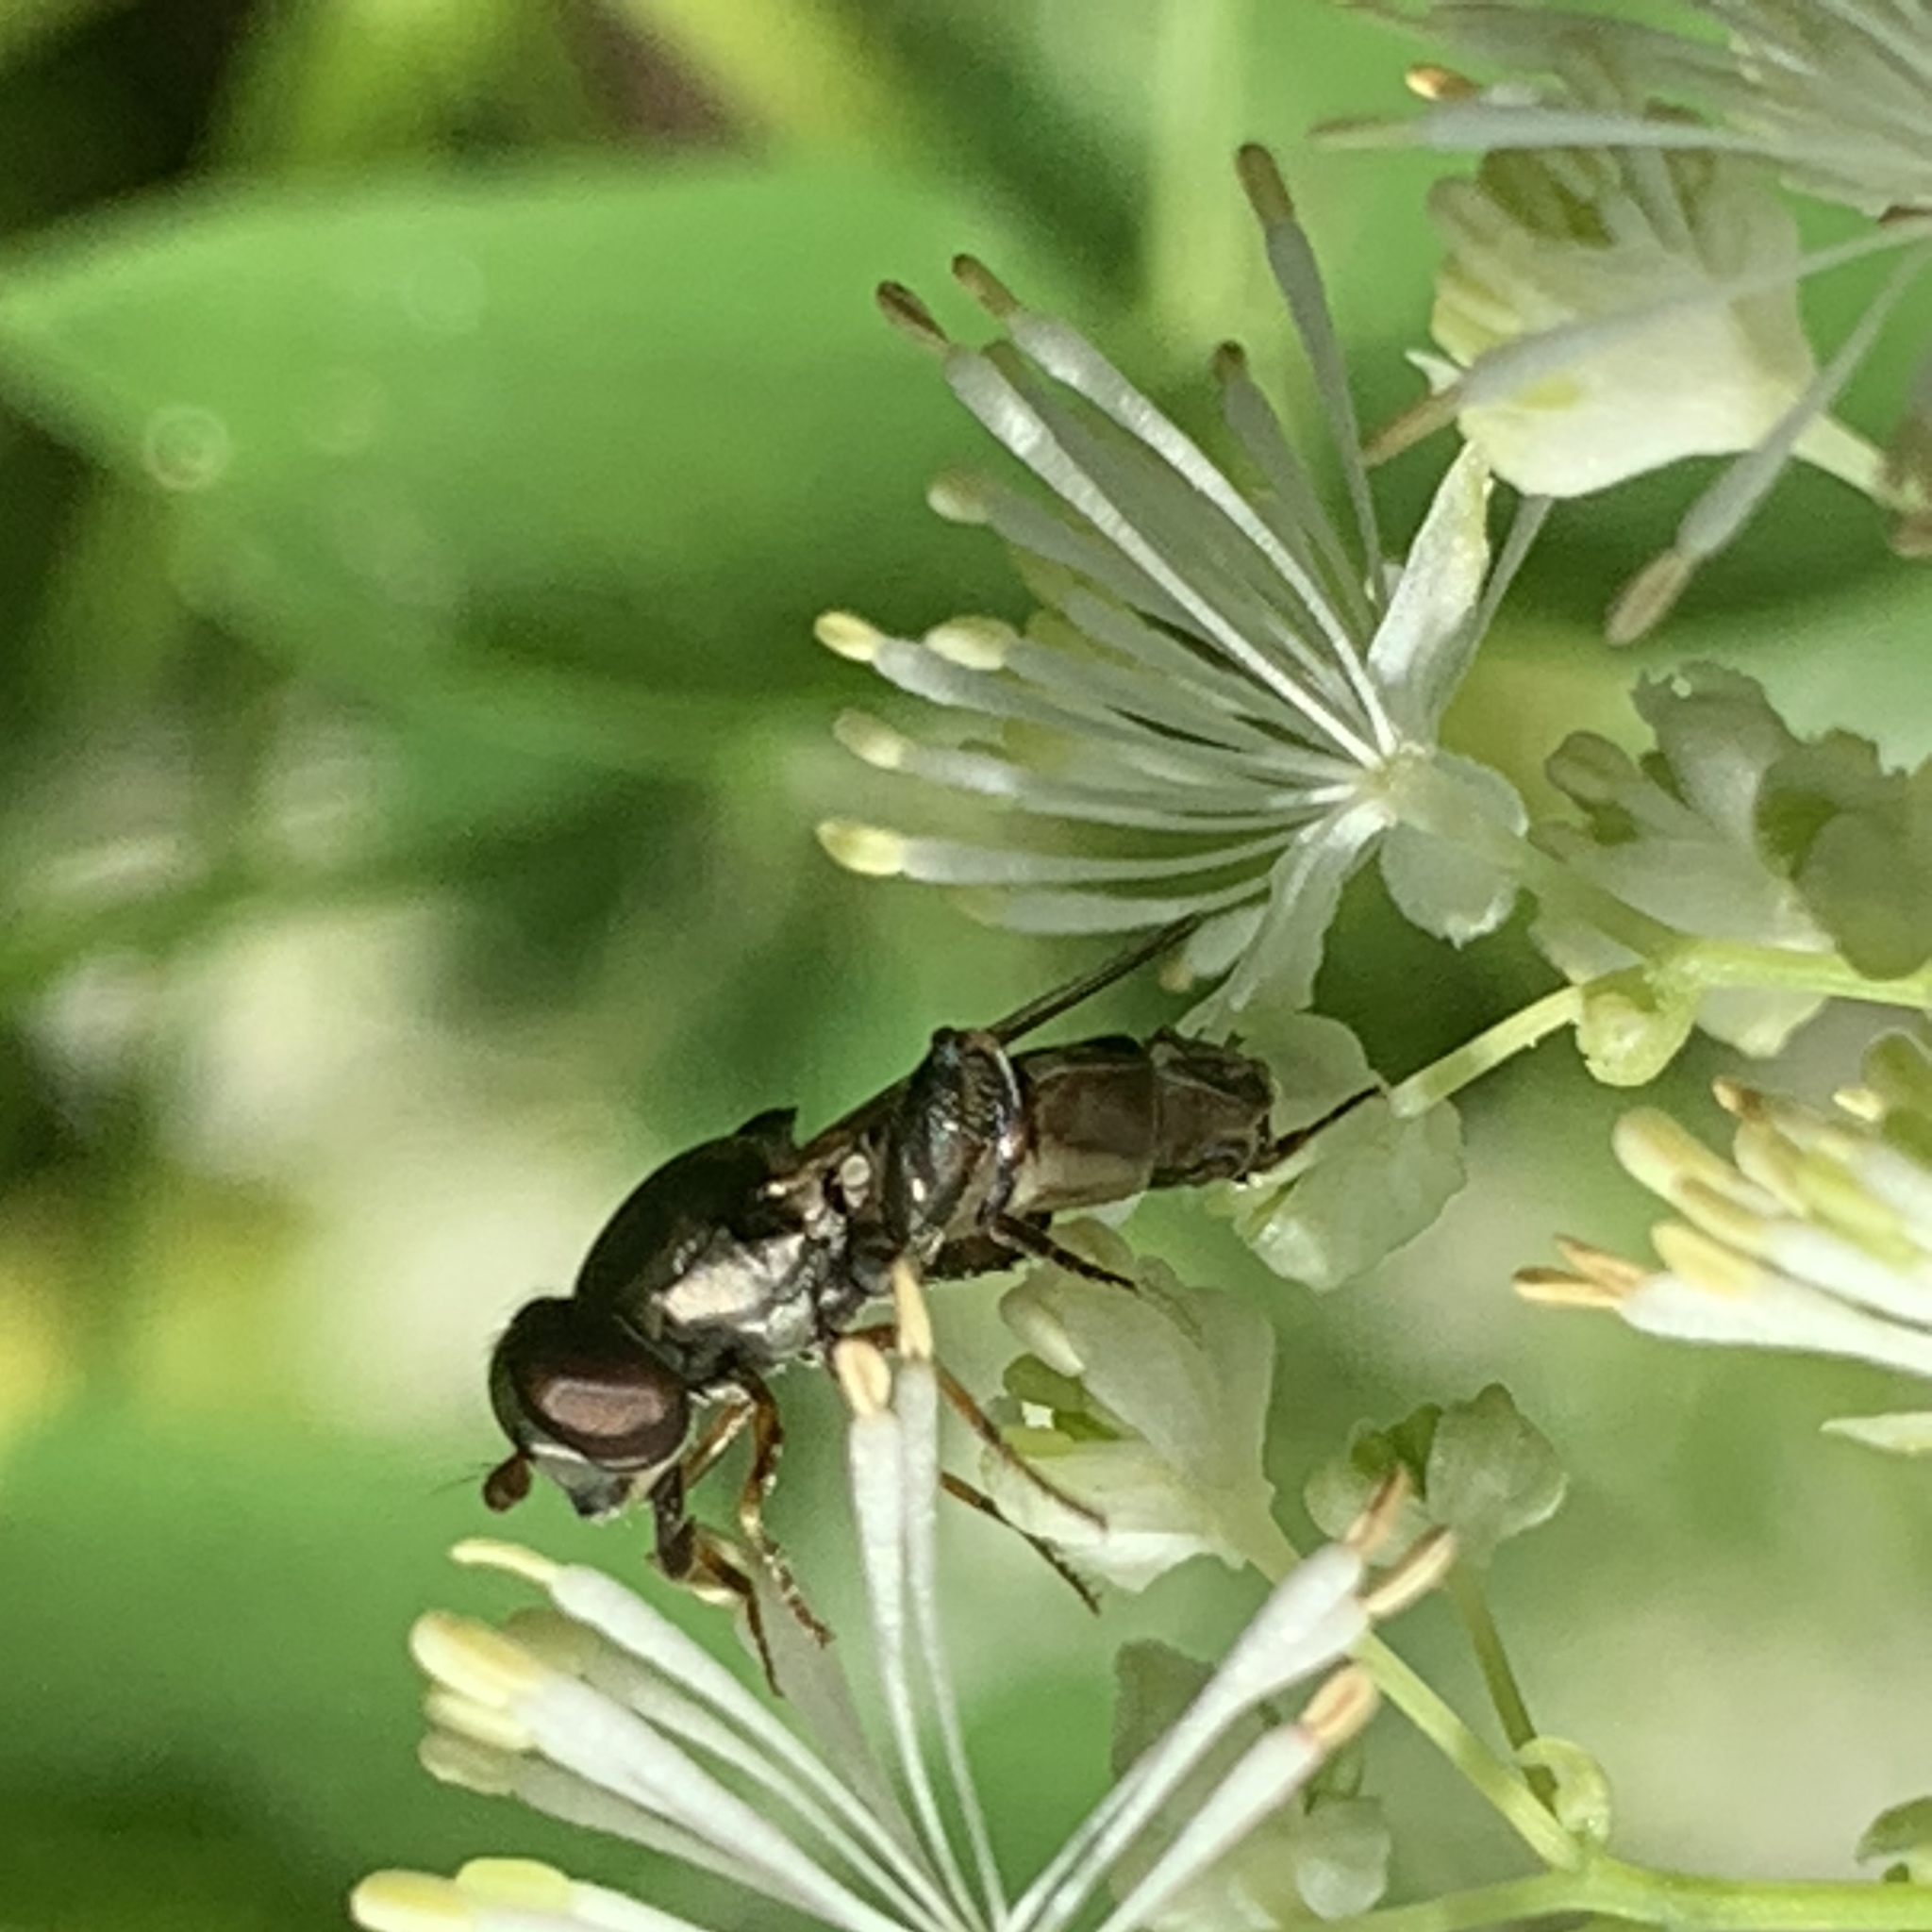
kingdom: Animalia
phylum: Arthropoda
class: Insecta
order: Diptera
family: Syrphidae
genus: Syritta
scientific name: Syritta pipiens
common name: Hover fly
